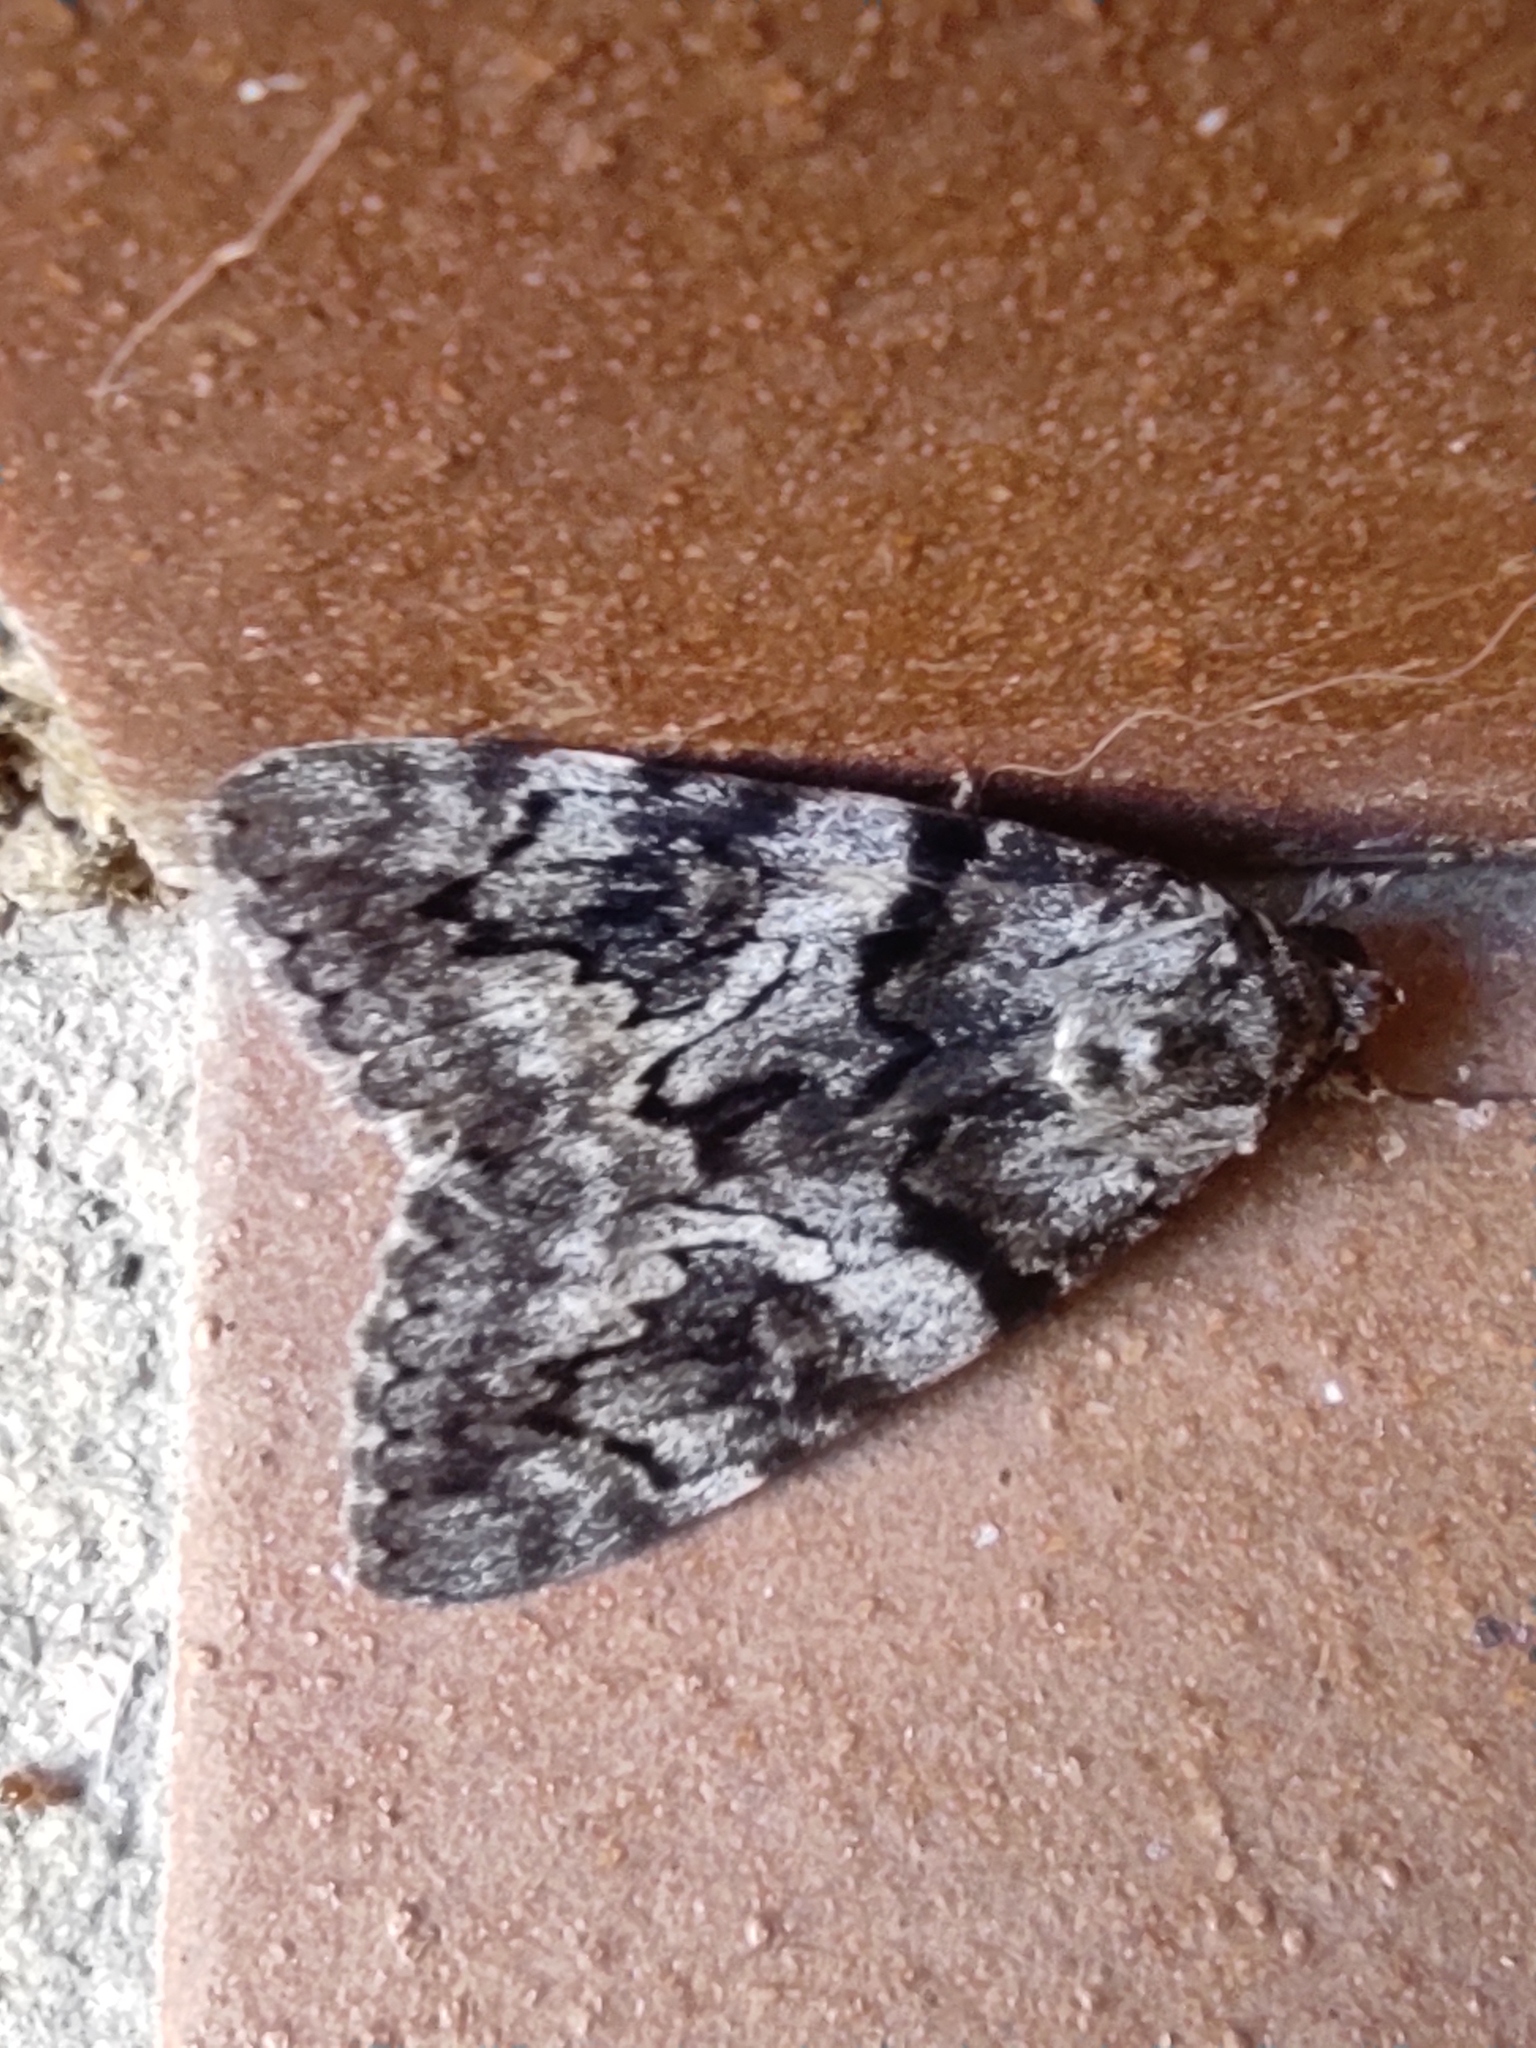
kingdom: Animalia
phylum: Arthropoda
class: Insecta
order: Lepidoptera
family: Erebidae
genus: Catocala
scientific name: Catocala conversa
